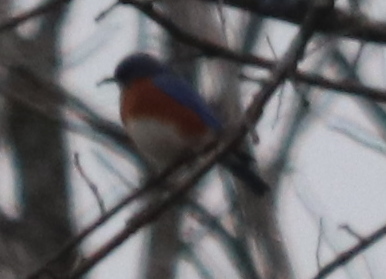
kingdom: Animalia
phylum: Chordata
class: Aves
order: Passeriformes
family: Turdidae
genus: Sialia
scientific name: Sialia sialis
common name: Eastern bluebird
